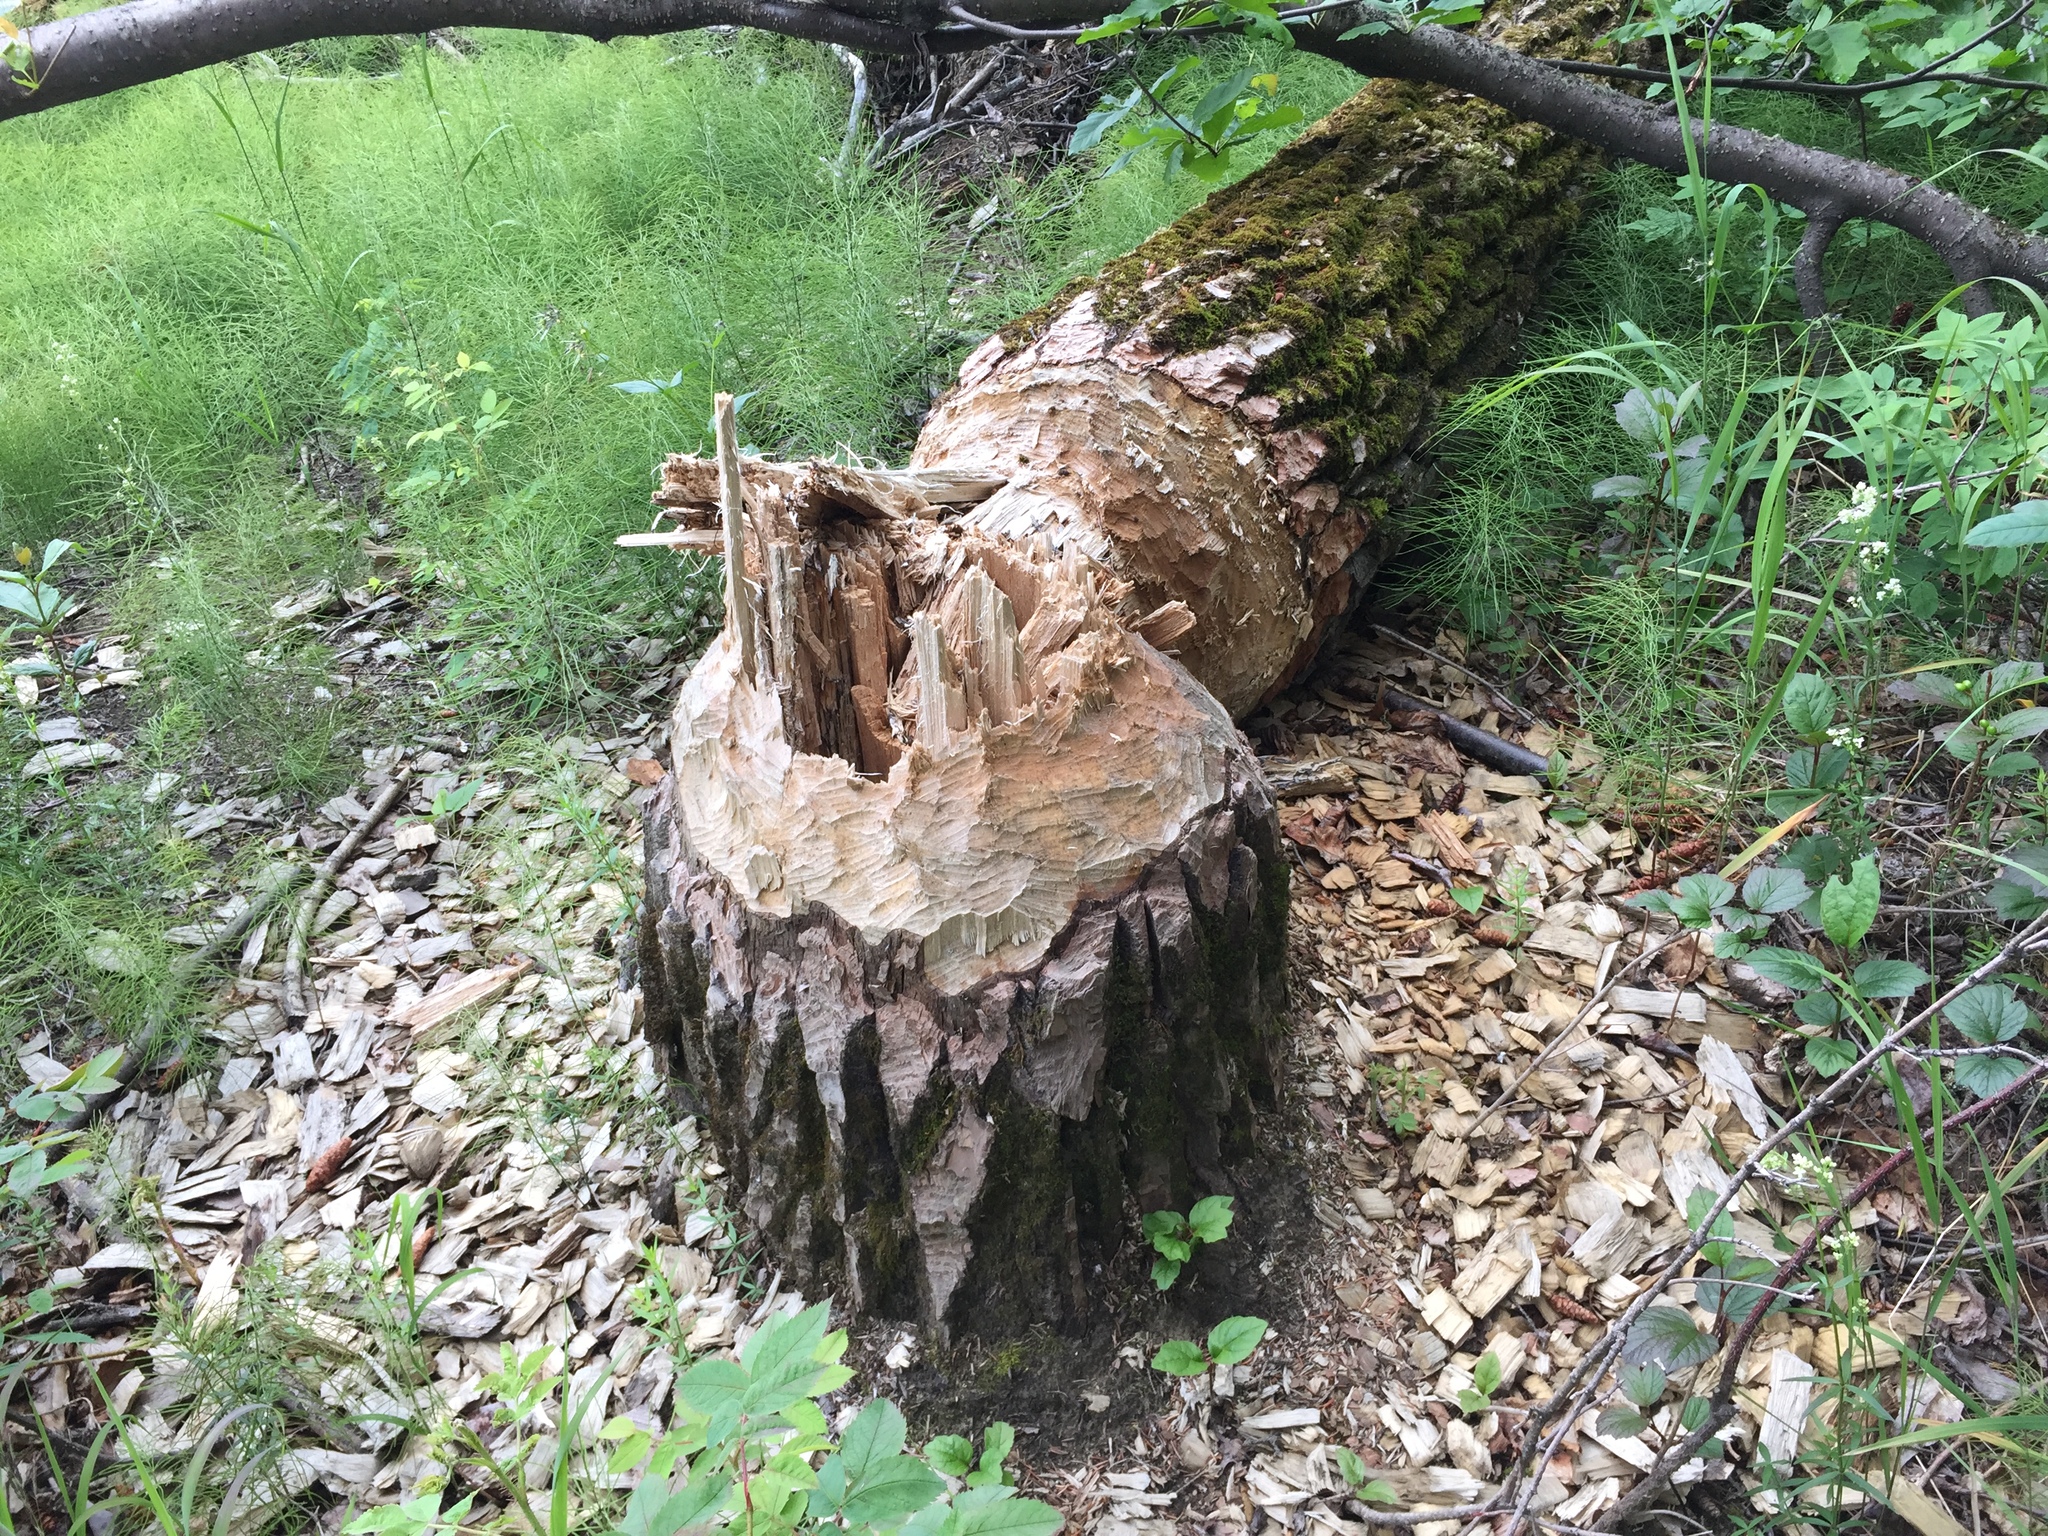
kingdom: Animalia
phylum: Chordata
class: Mammalia
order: Rodentia
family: Castoridae
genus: Castor
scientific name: Castor canadensis
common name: American beaver
